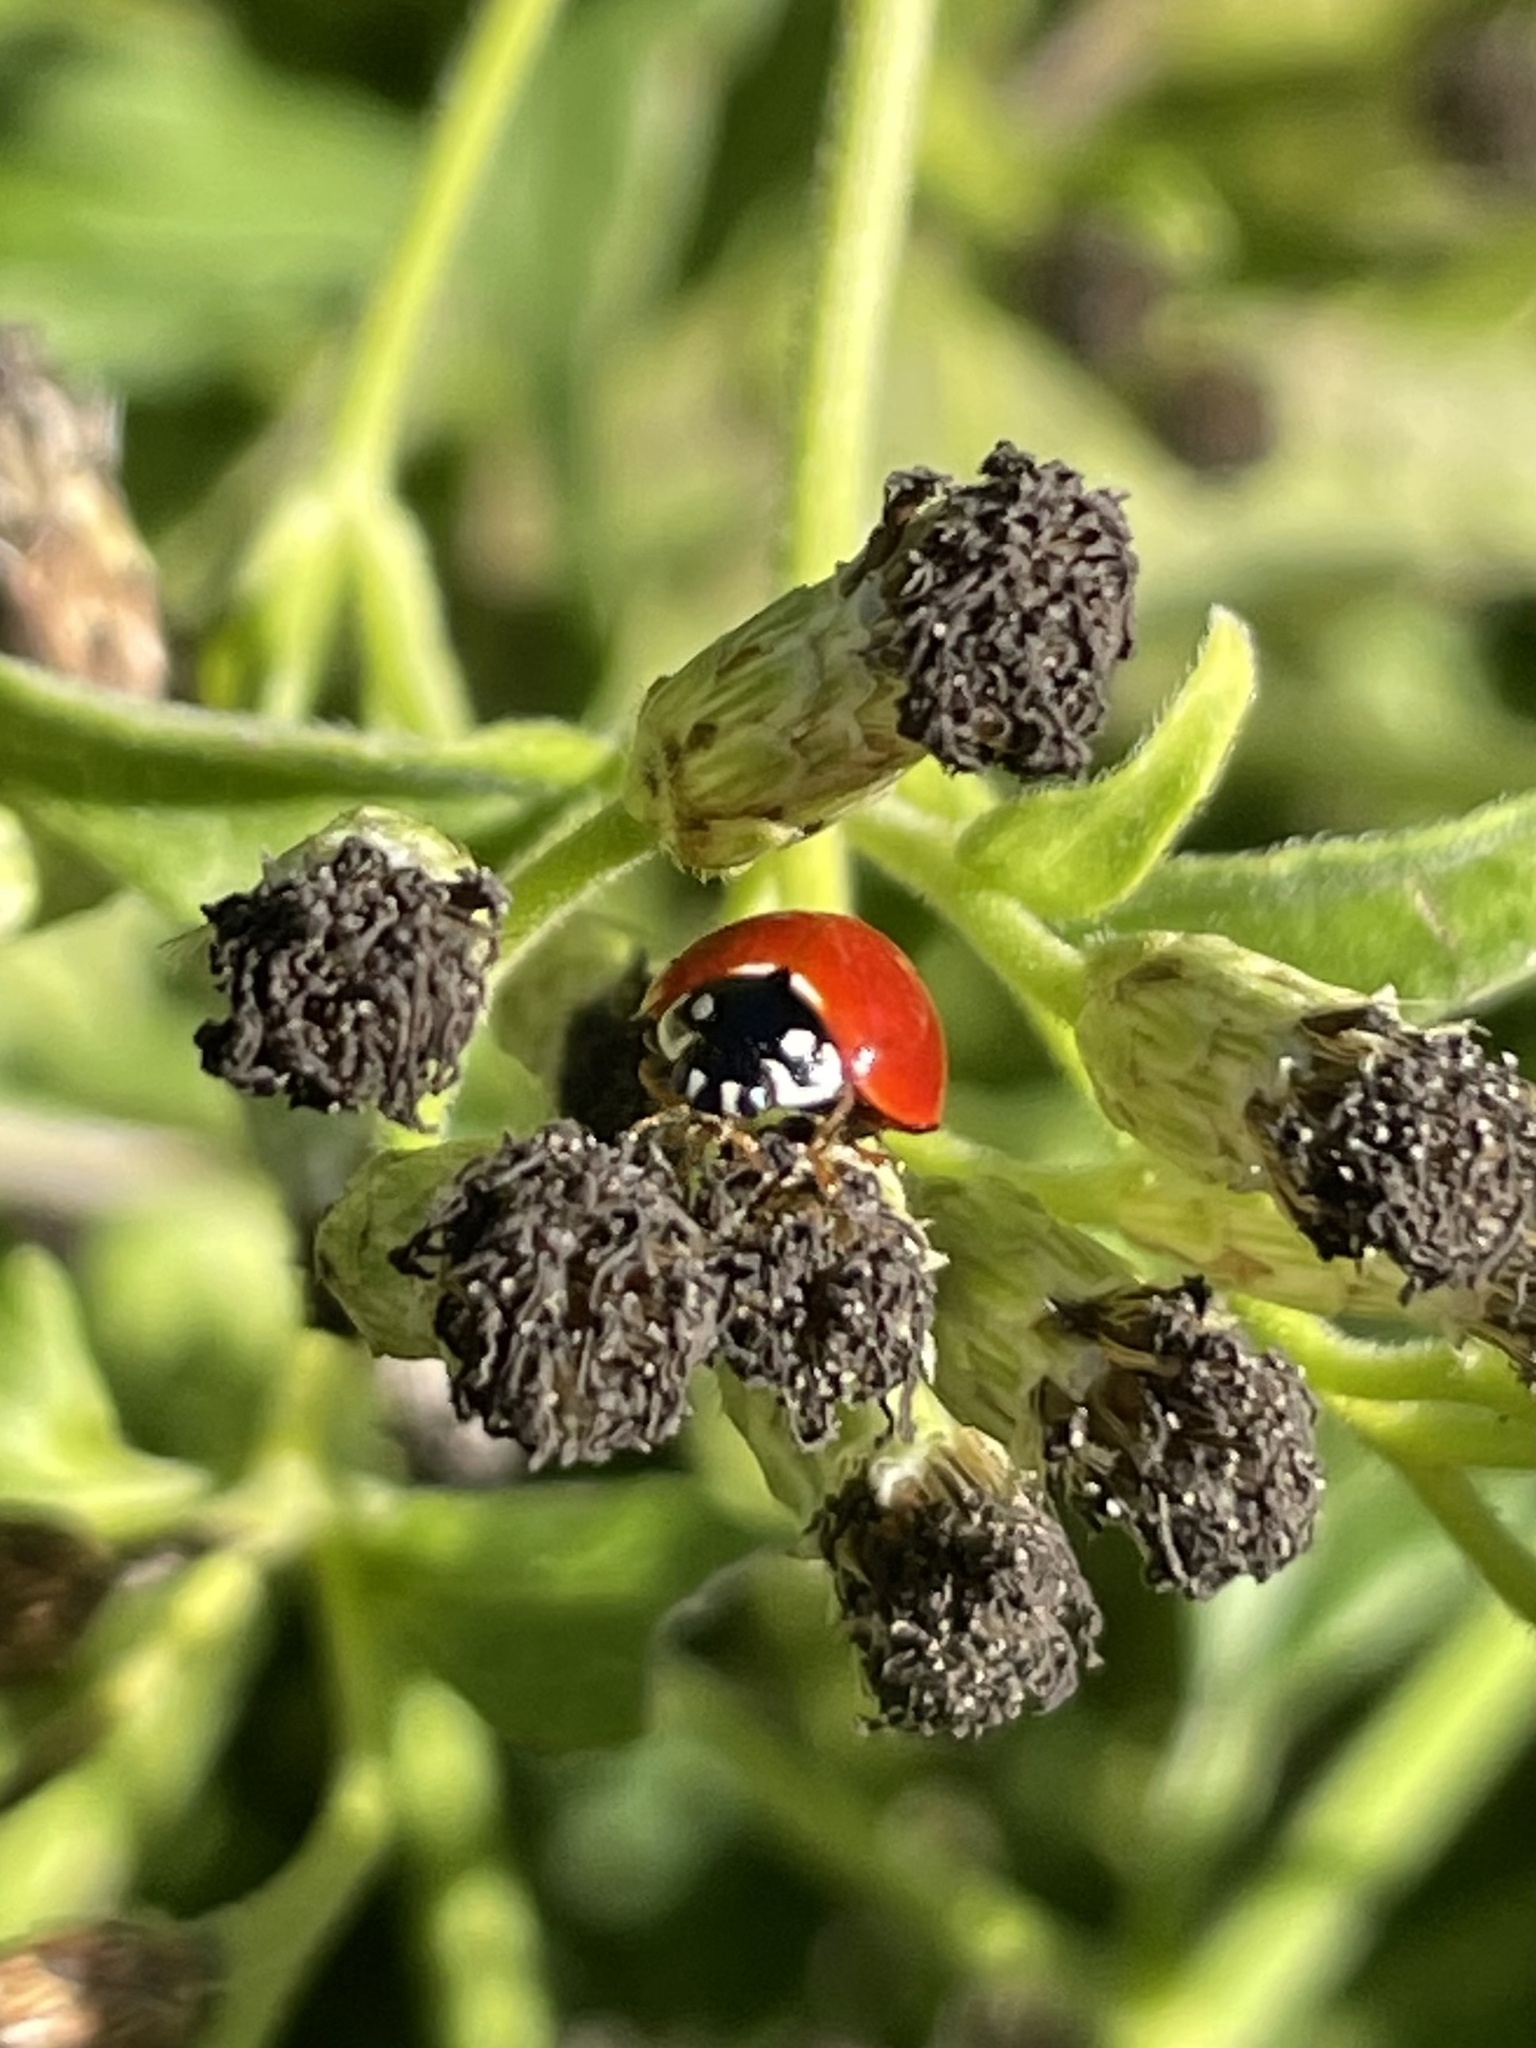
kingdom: Animalia
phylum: Arthropoda
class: Insecta
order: Coleoptera
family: Coccinellidae
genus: Cycloneda
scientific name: Cycloneda sanguinea
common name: Ladybird beetle
